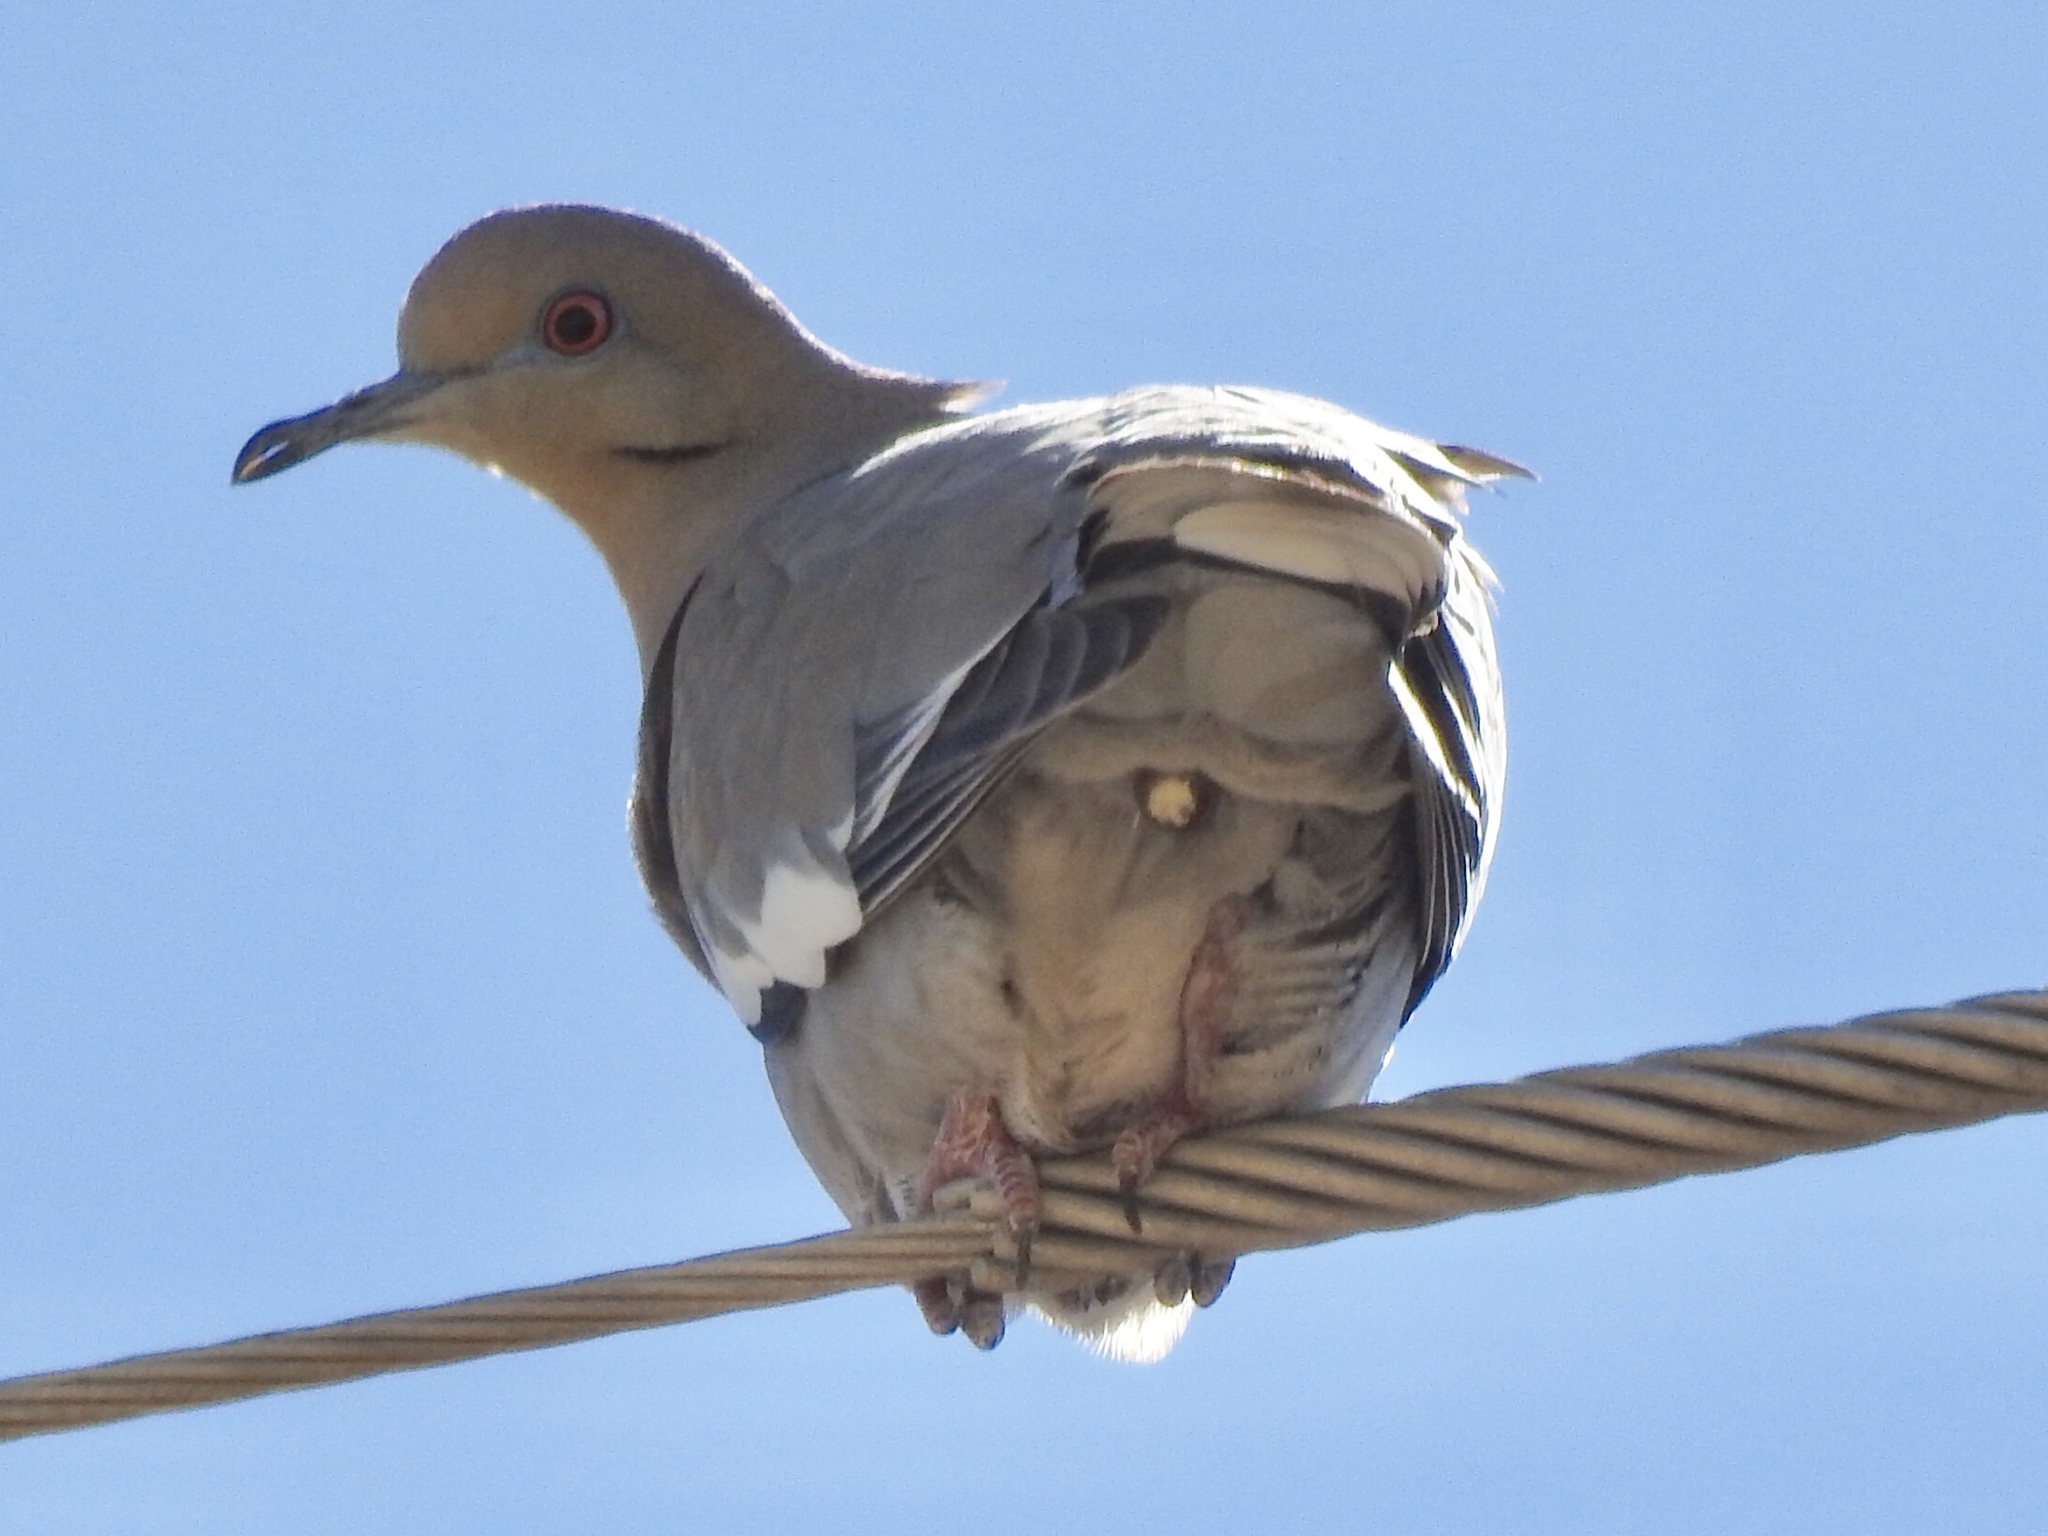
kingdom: Animalia
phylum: Chordata
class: Aves
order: Columbiformes
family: Columbidae
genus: Zenaida
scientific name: Zenaida asiatica
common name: White-winged dove
